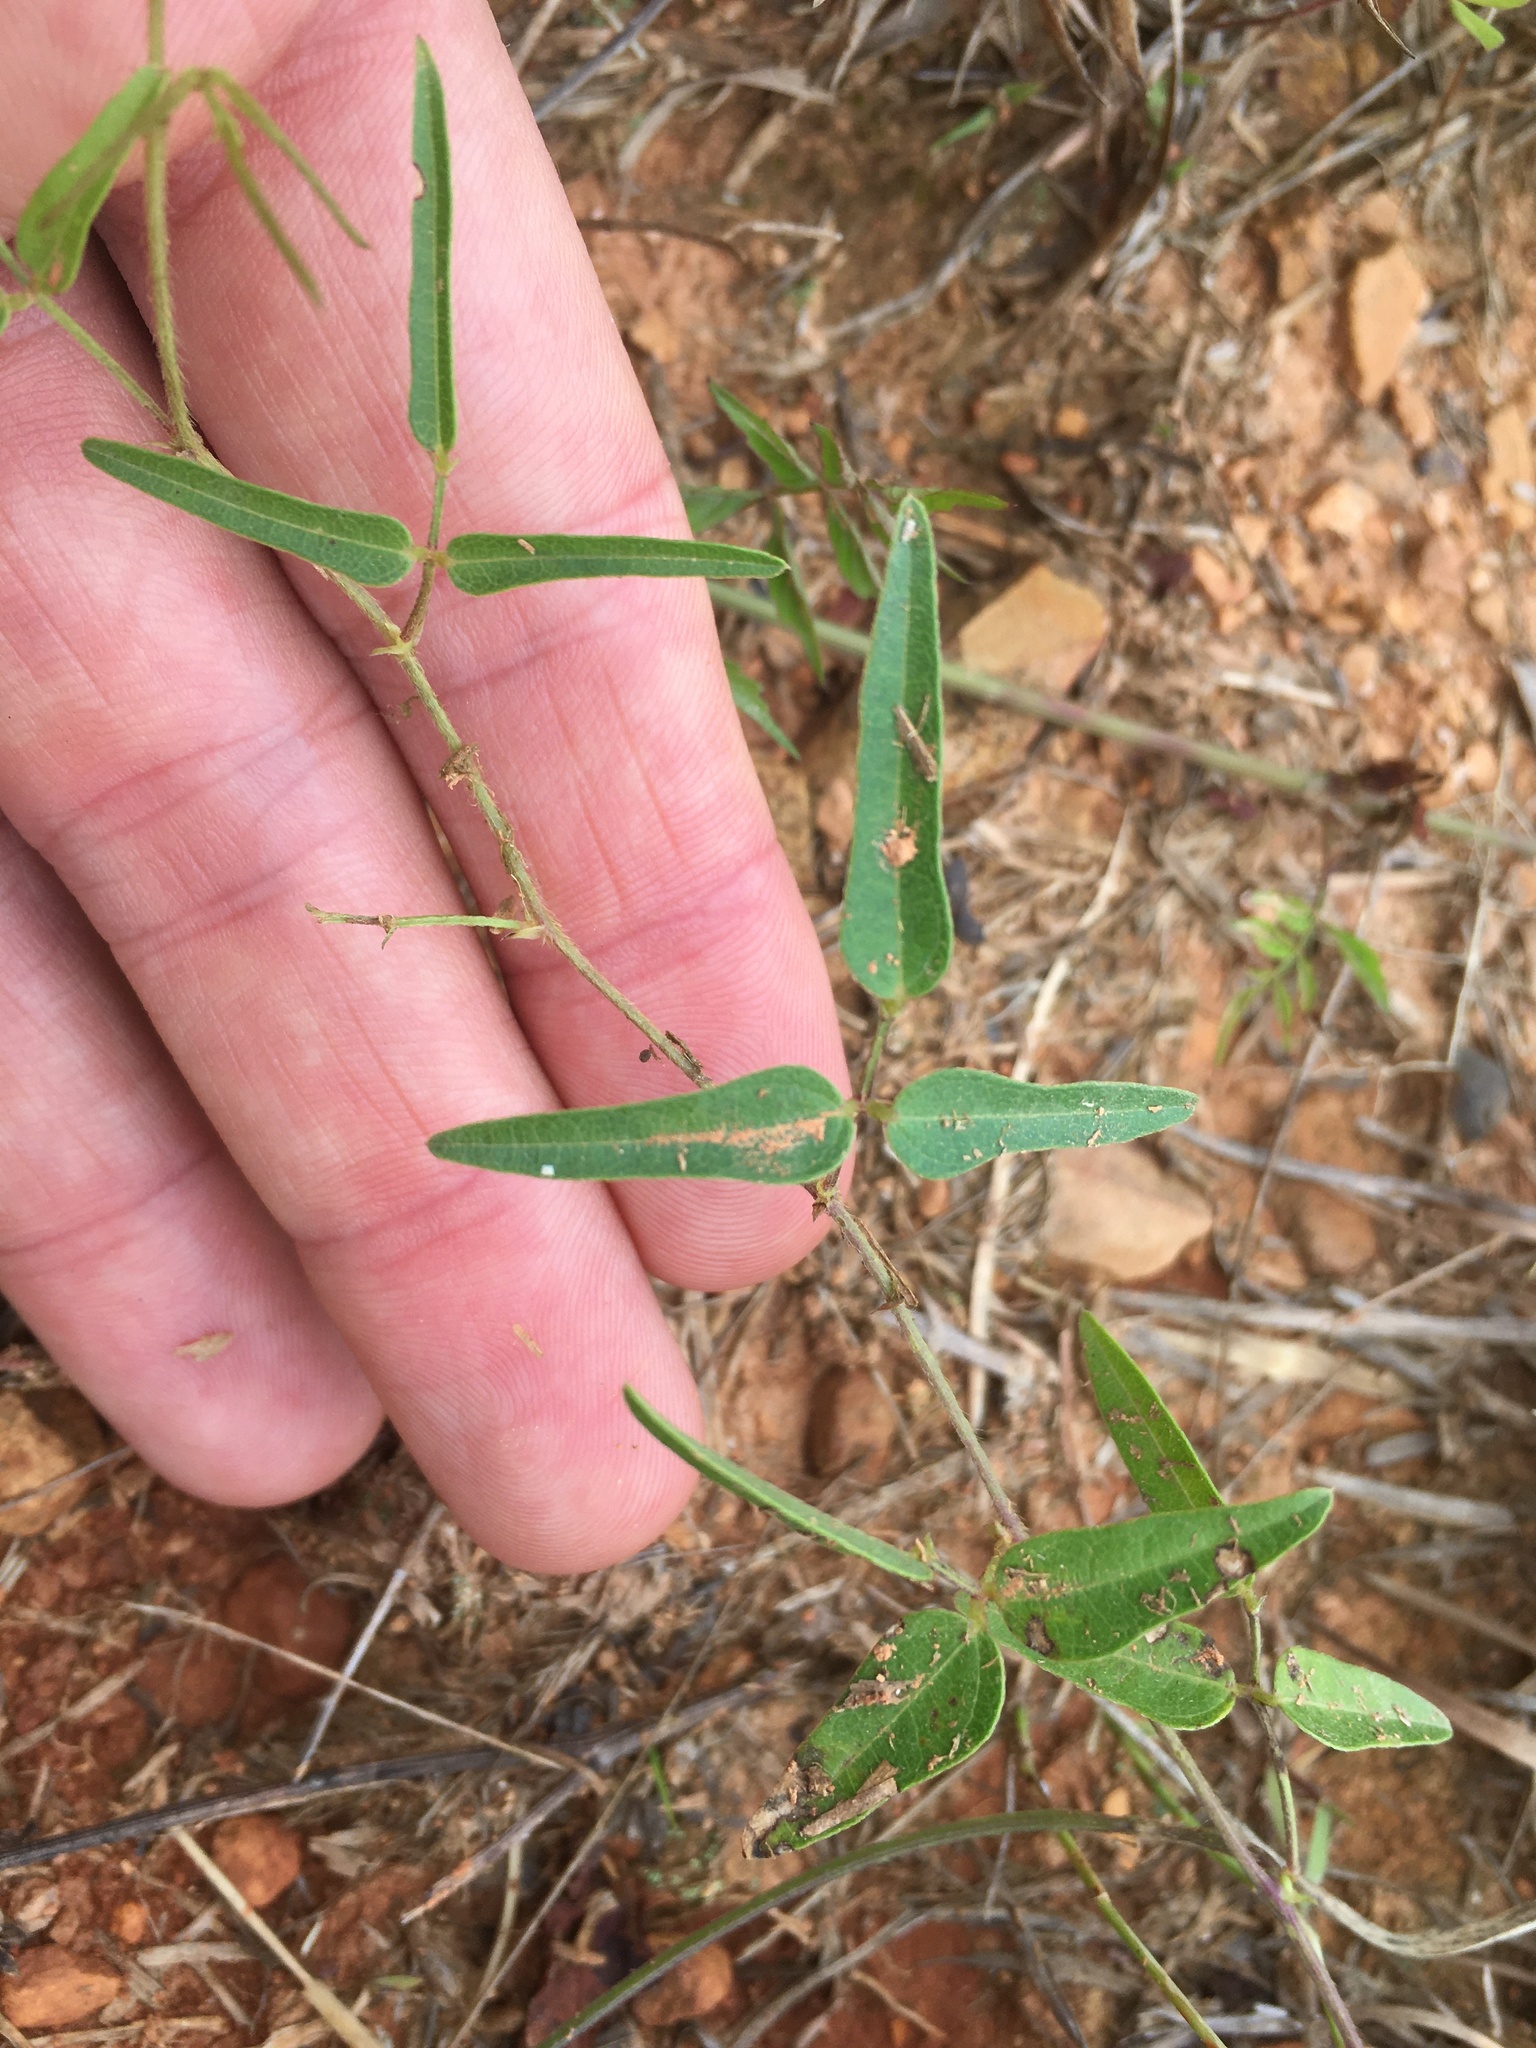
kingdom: Plantae
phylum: Tracheophyta
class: Magnoliopsida
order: Fabales
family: Fabaceae
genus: Strophostyles
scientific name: Strophostyles umbellata
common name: Perennial wild bean
